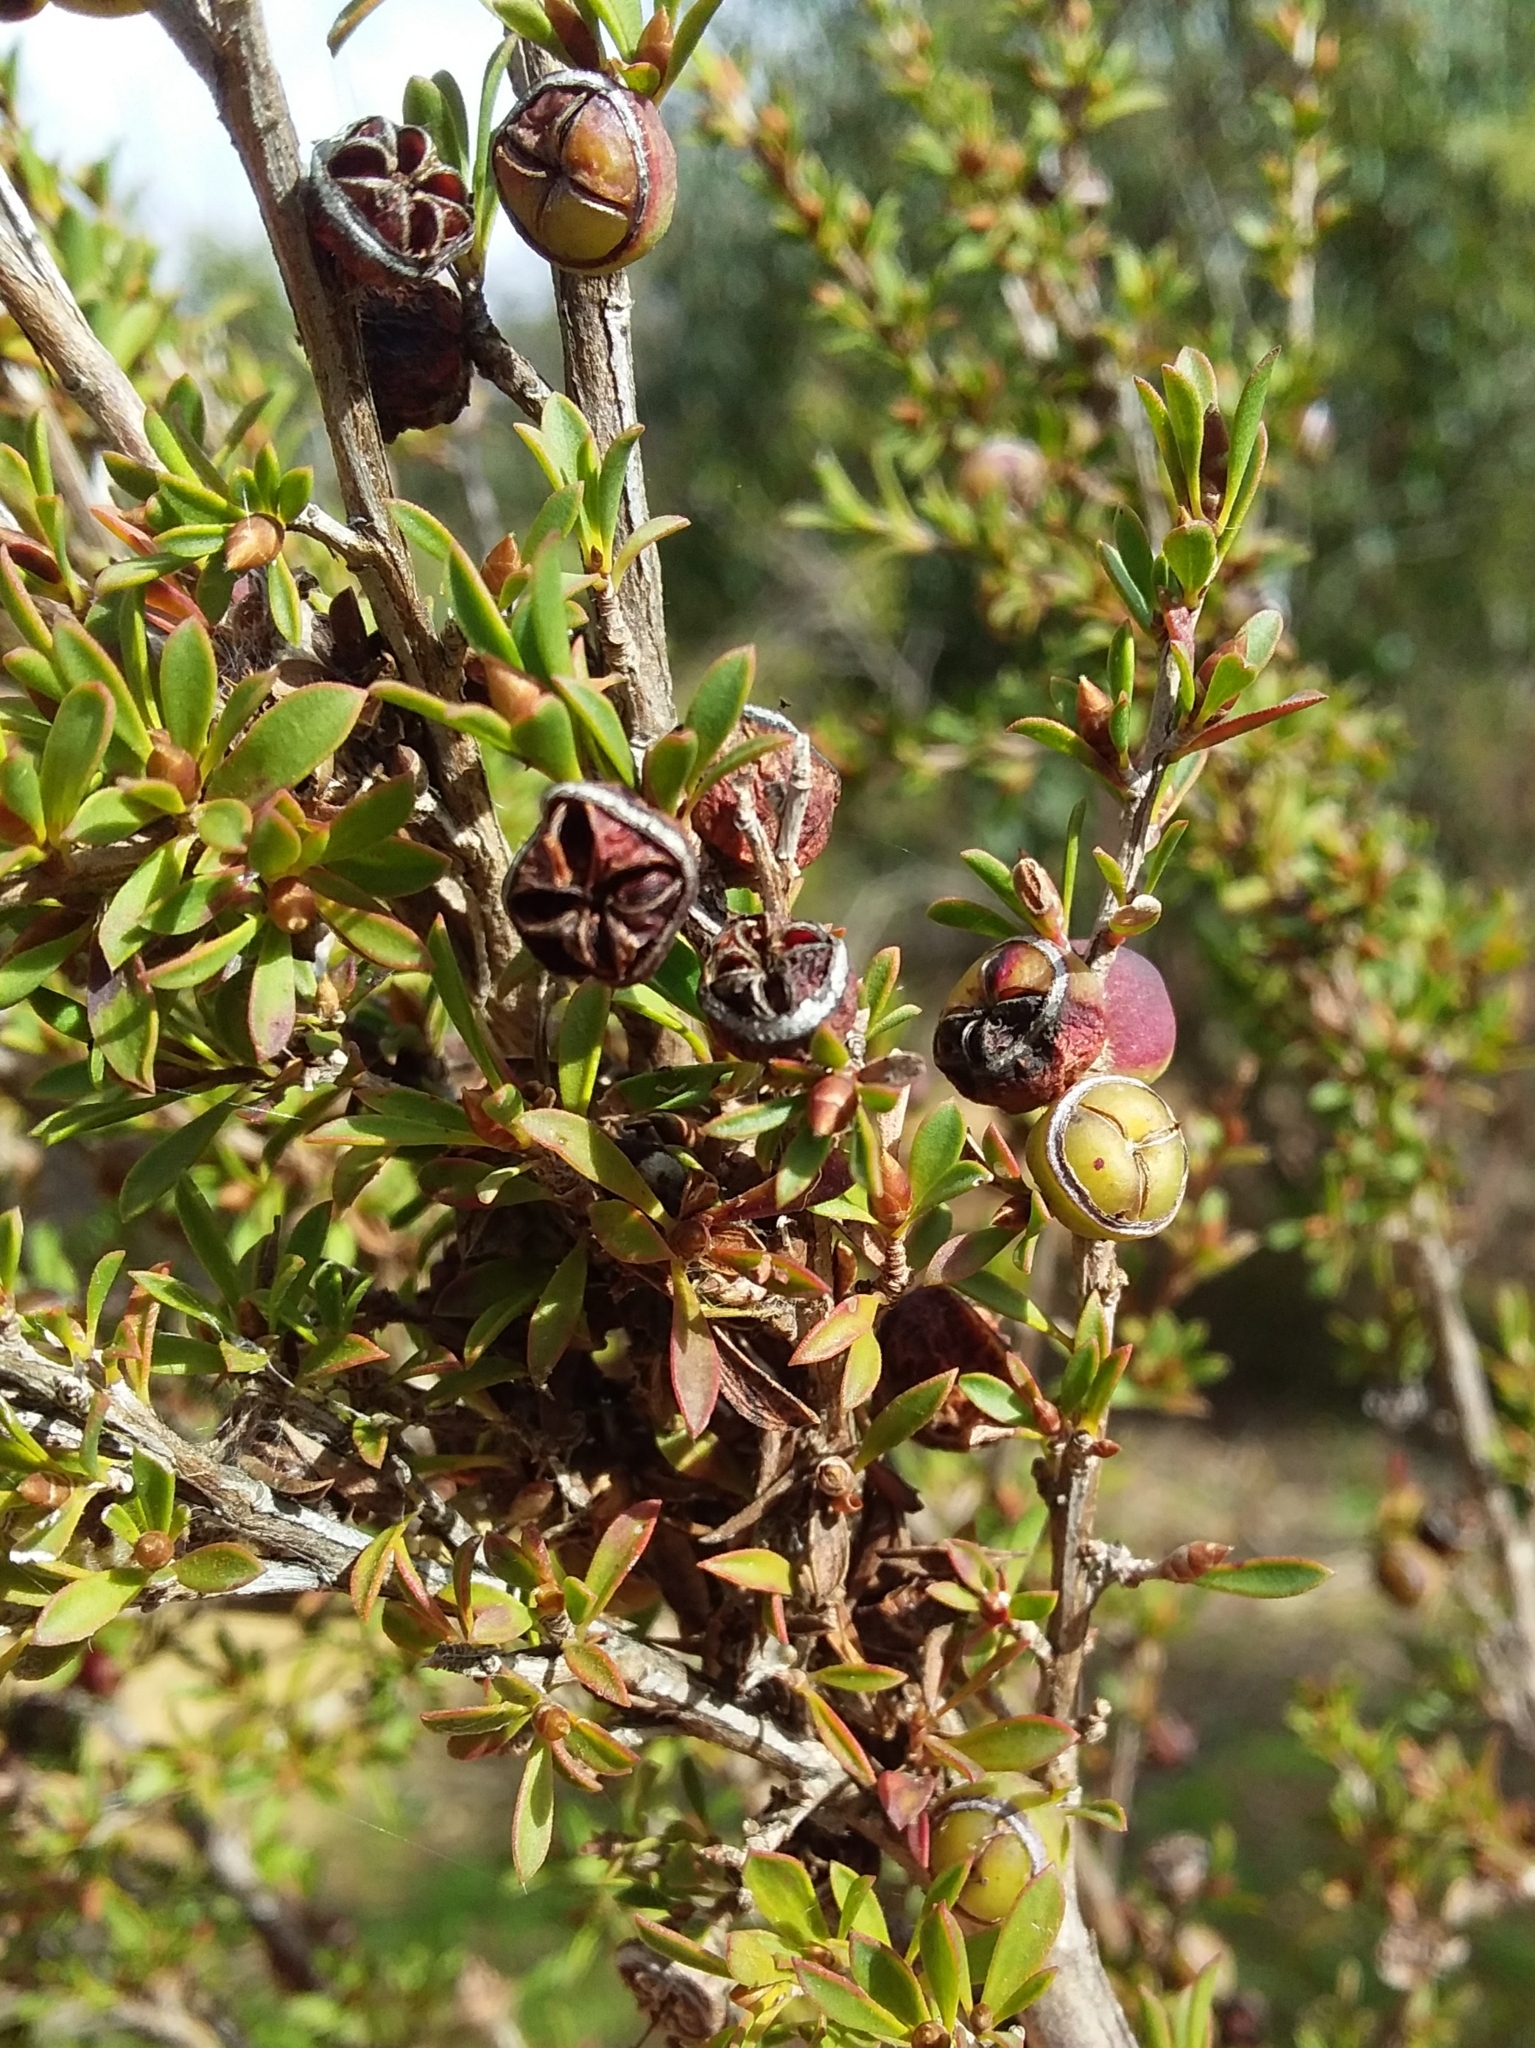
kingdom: Plantae
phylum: Tracheophyta
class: Magnoliopsida
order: Myrtales
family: Myrtaceae
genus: Leptospermum
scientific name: Leptospermum myrsinoides
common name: Heath teatree
